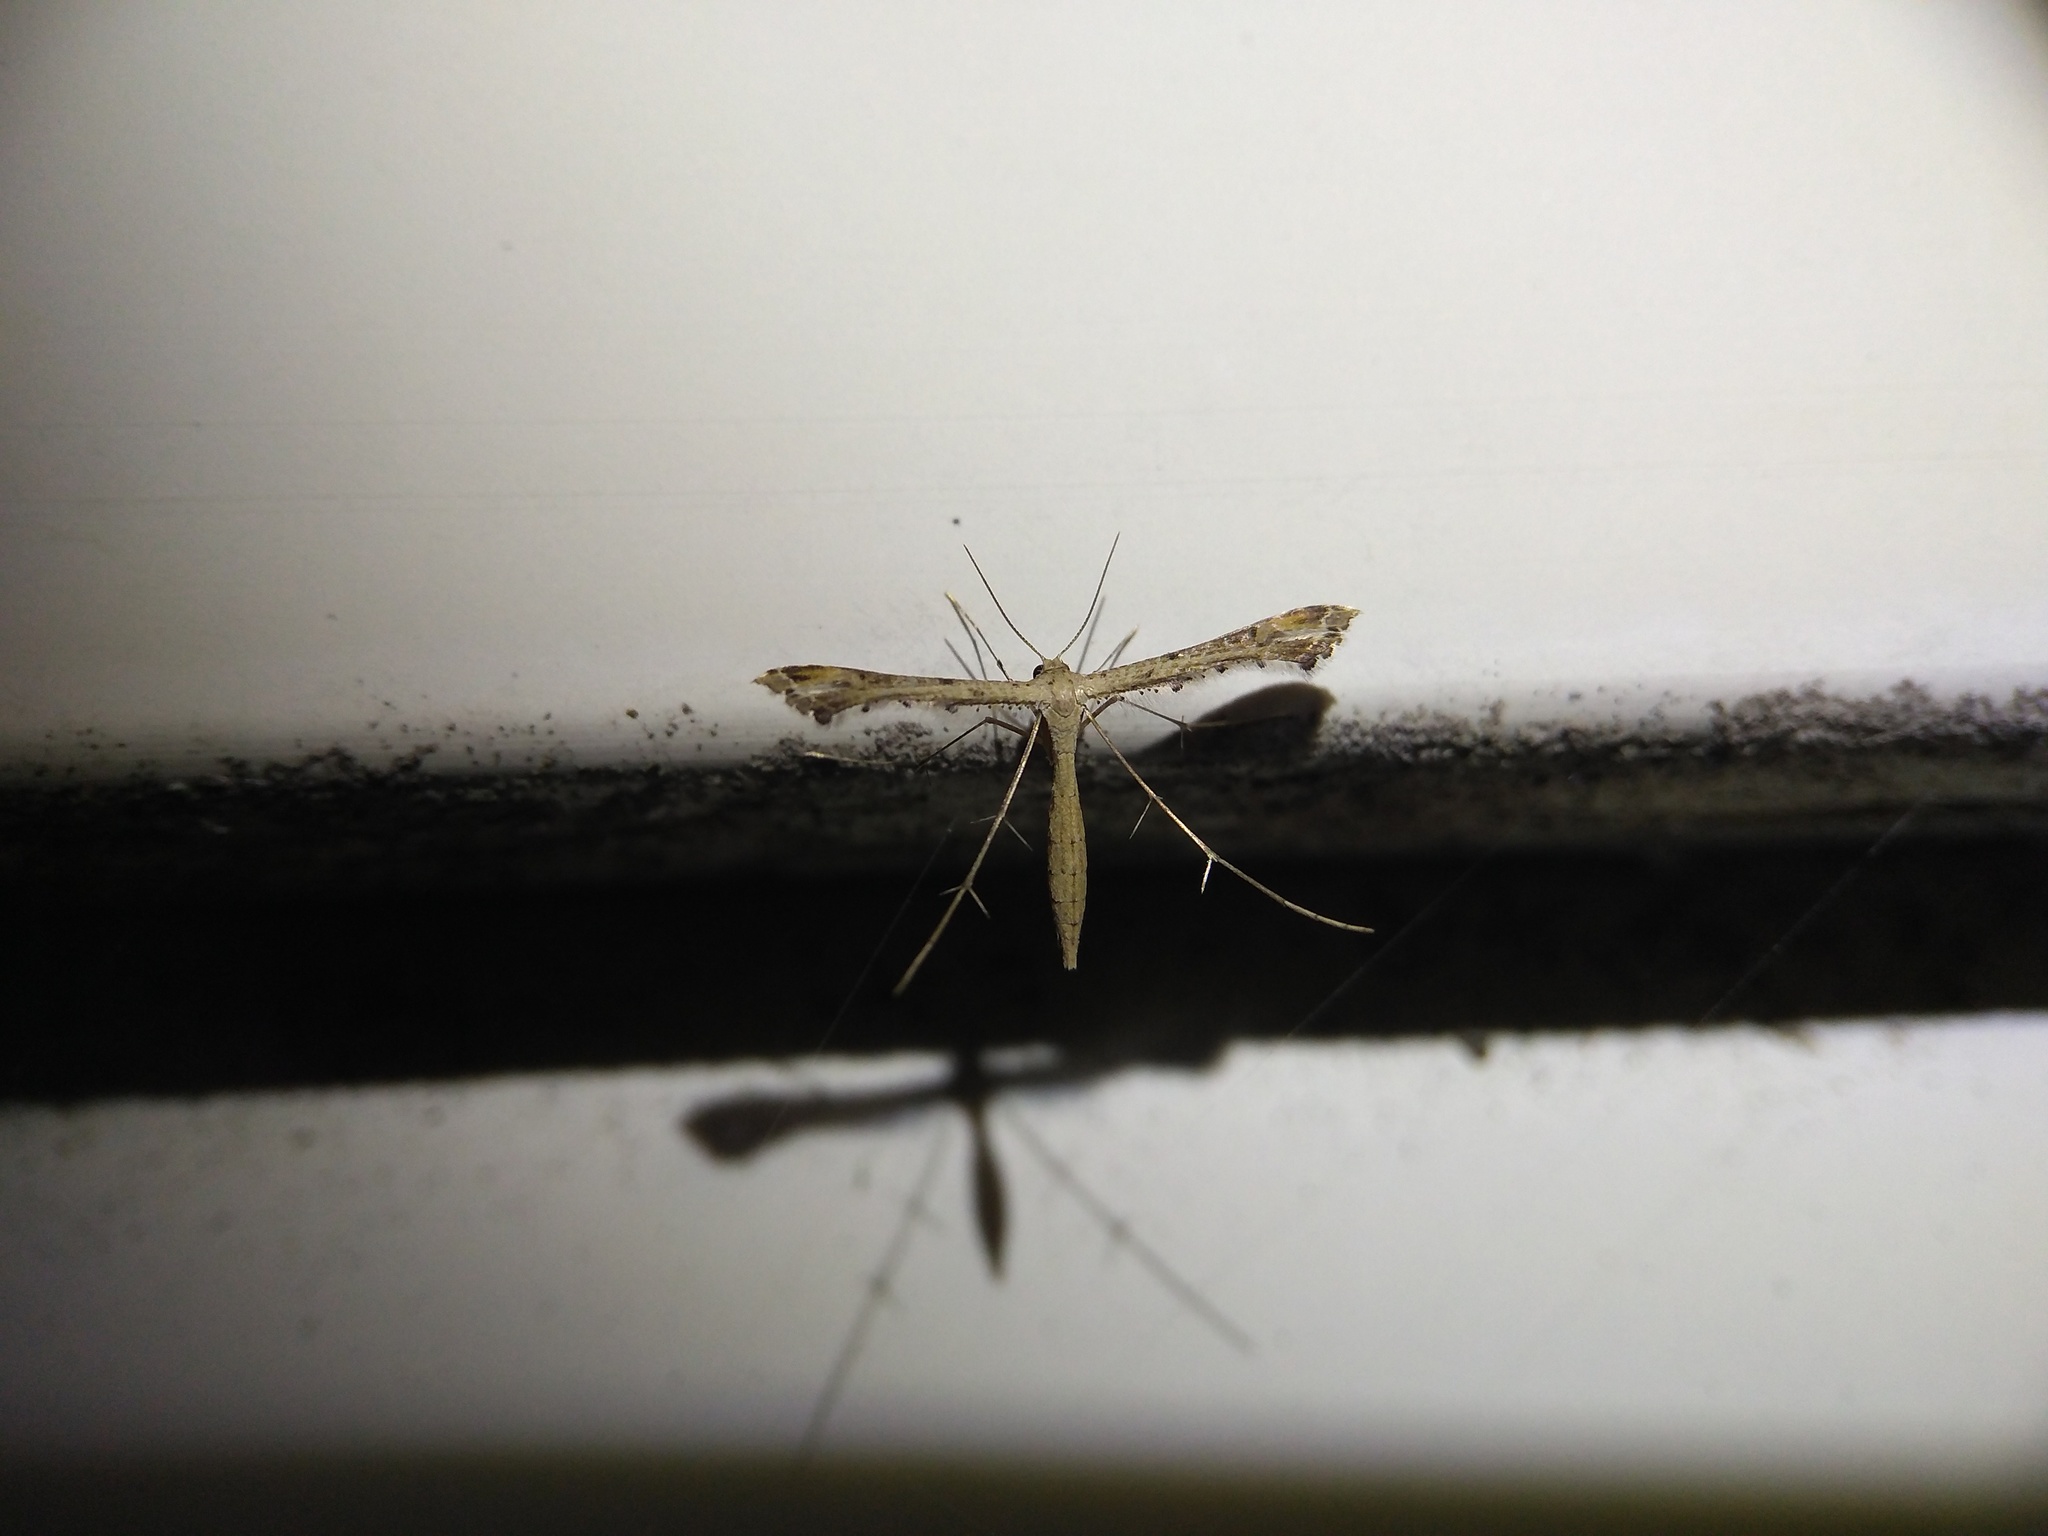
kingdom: Animalia
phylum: Arthropoda
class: Insecta
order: Lepidoptera
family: Pterophoridae
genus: Stenoptilodes
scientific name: Stenoptilodes
